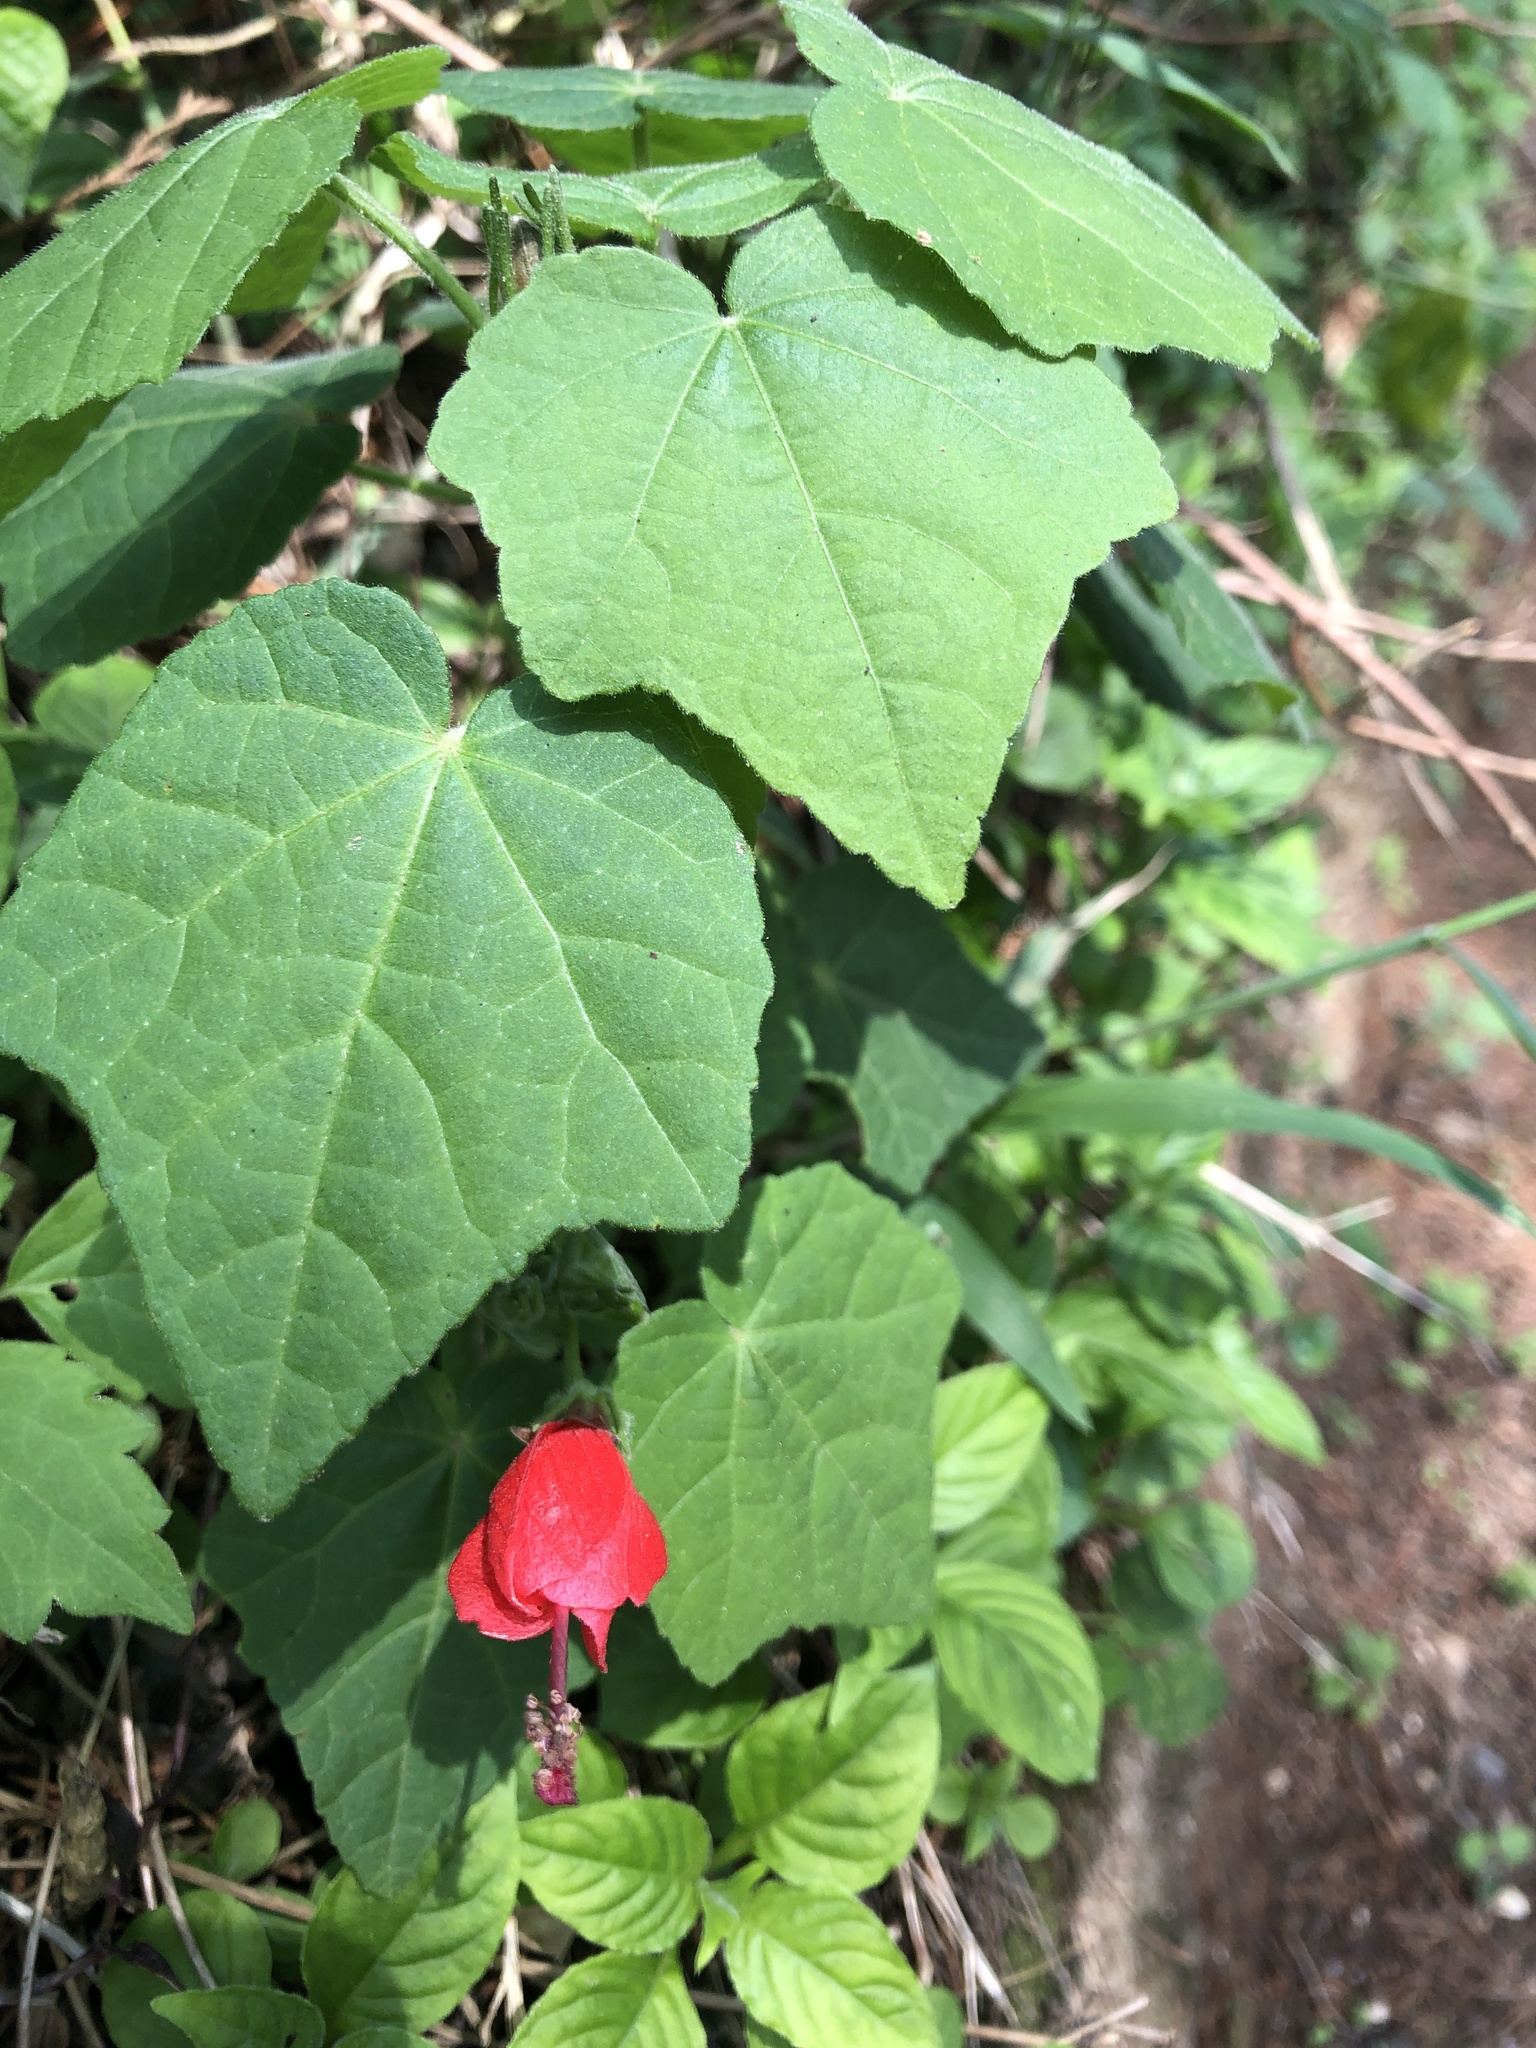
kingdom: Plantae
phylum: Tracheophyta
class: Magnoliopsida
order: Malvales
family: Malvaceae
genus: Malvaviscus
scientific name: Malvaviscus arboreus
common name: Wax mallow
